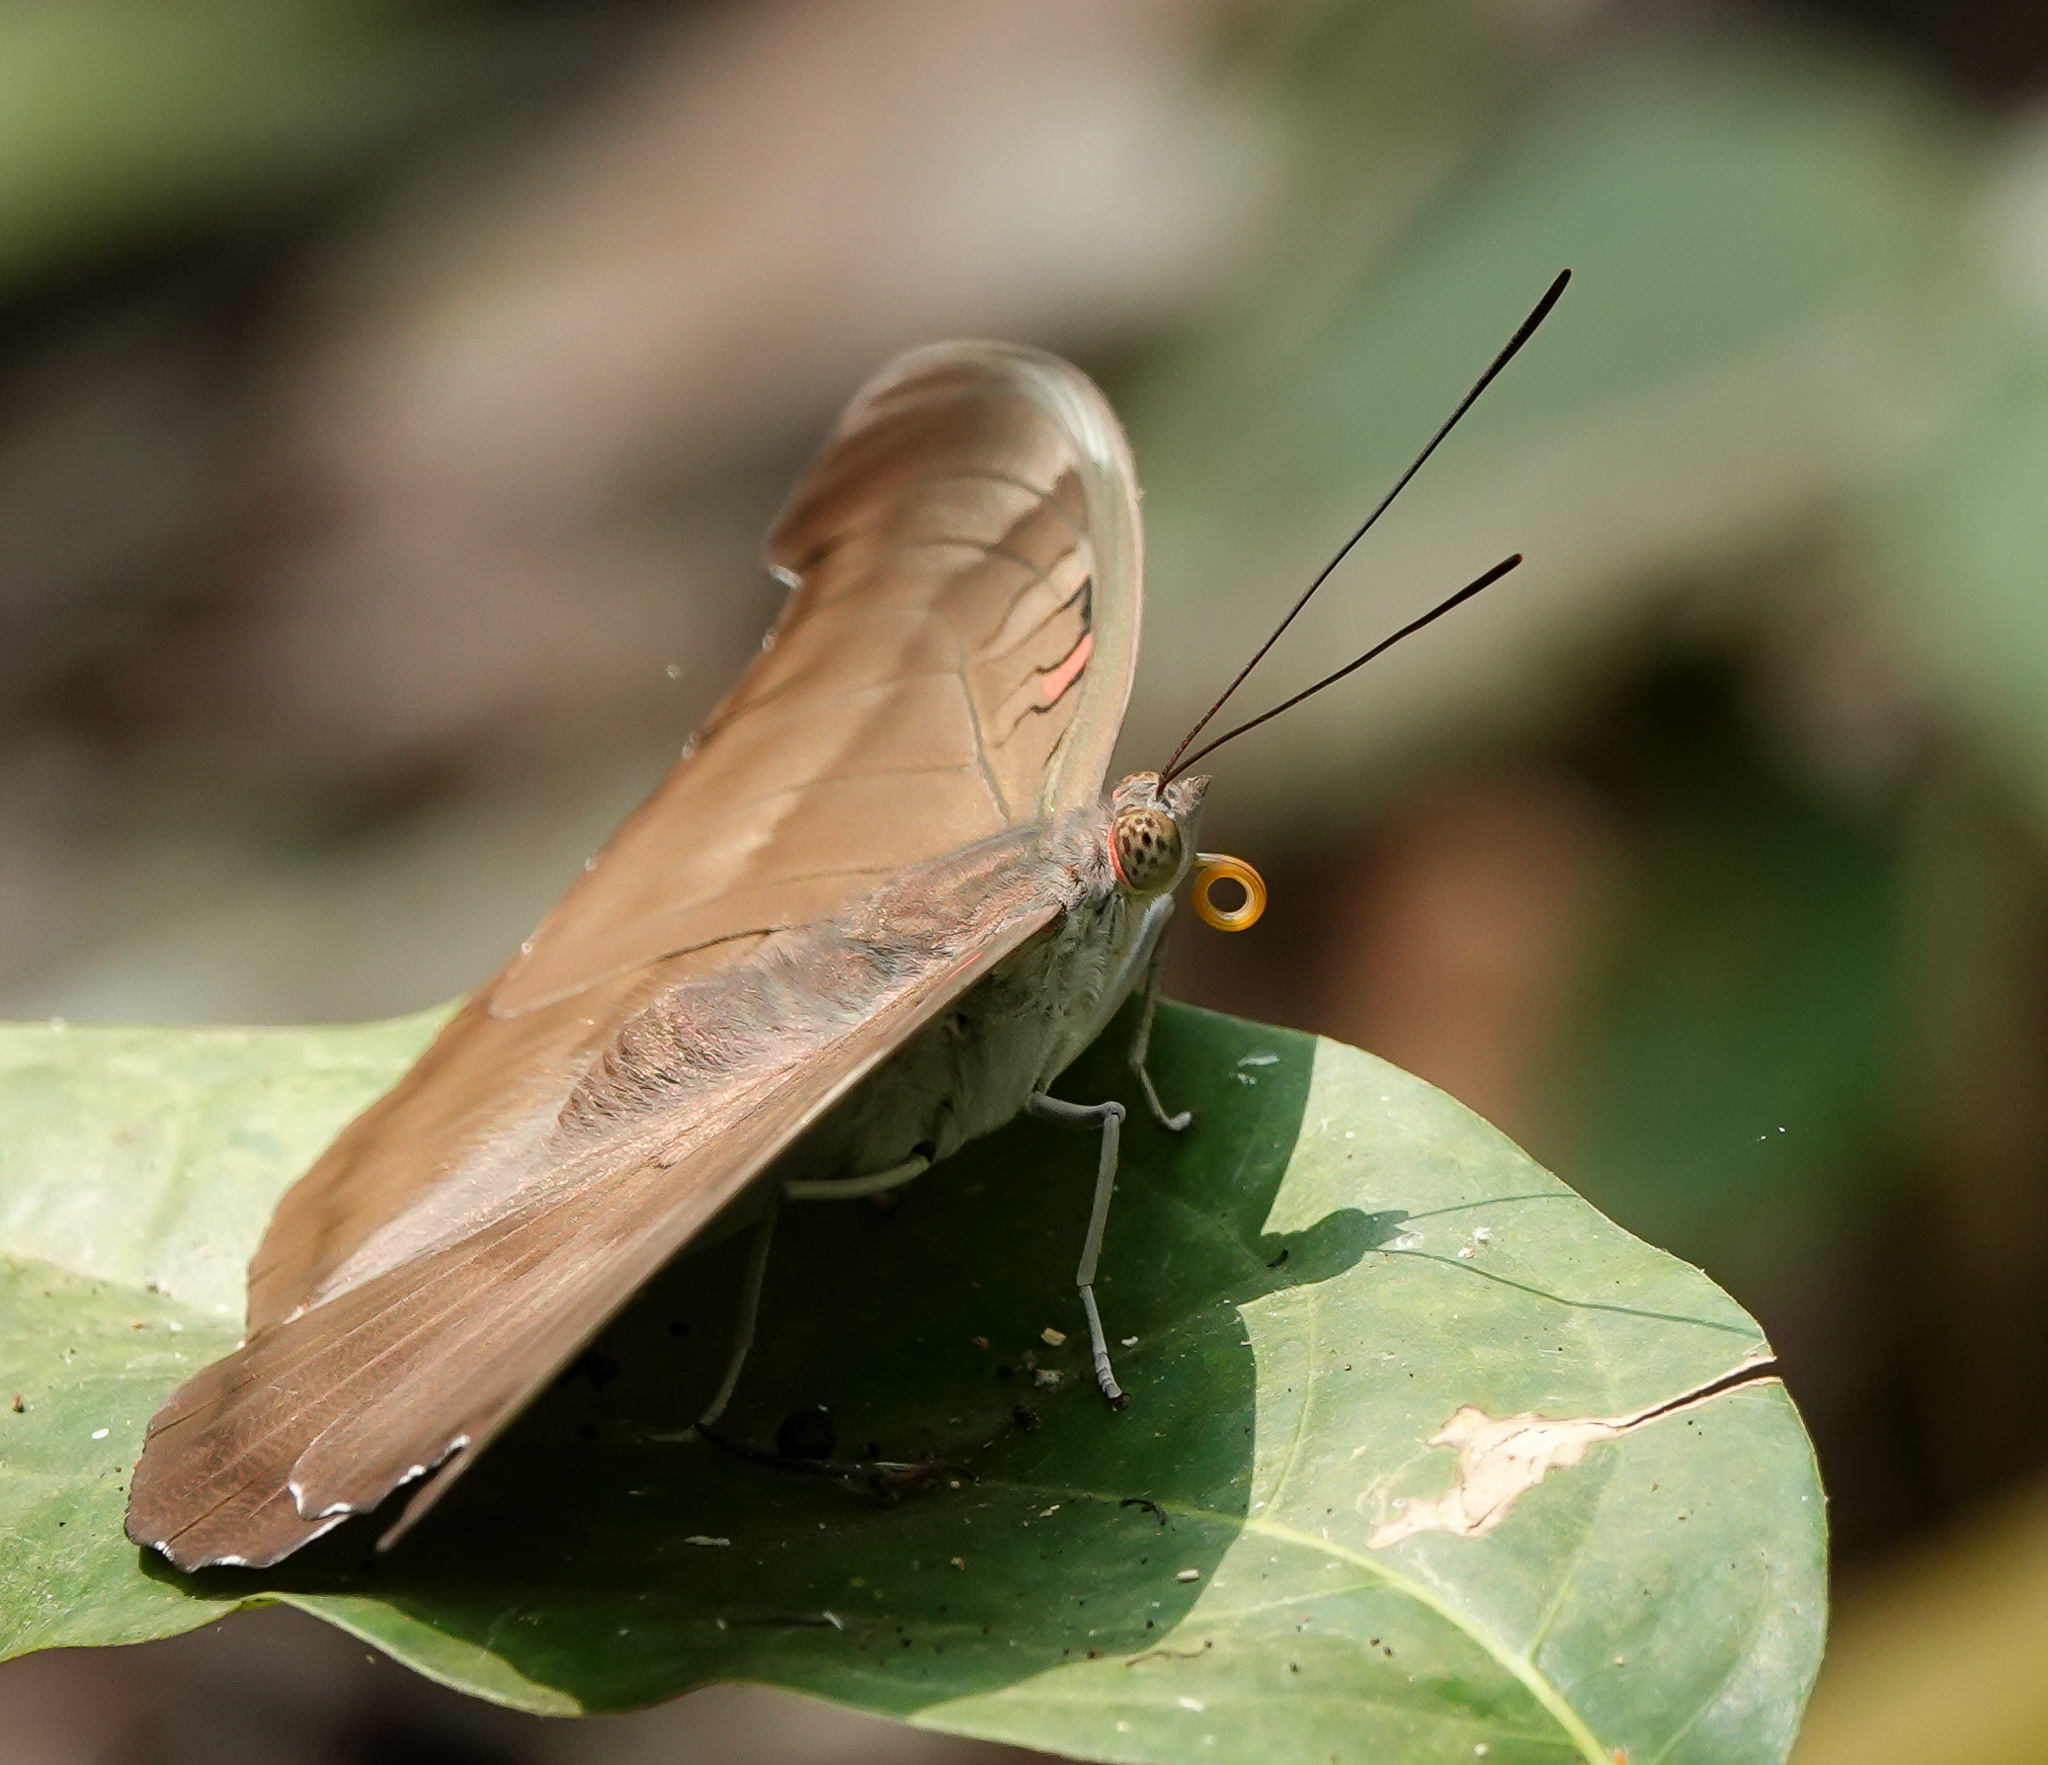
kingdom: Animalia
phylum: Arthropoda
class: Insecta
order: Lepidoptera
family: Nymphalidae
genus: Euthalia
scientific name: Euthalia Dophla evelina
